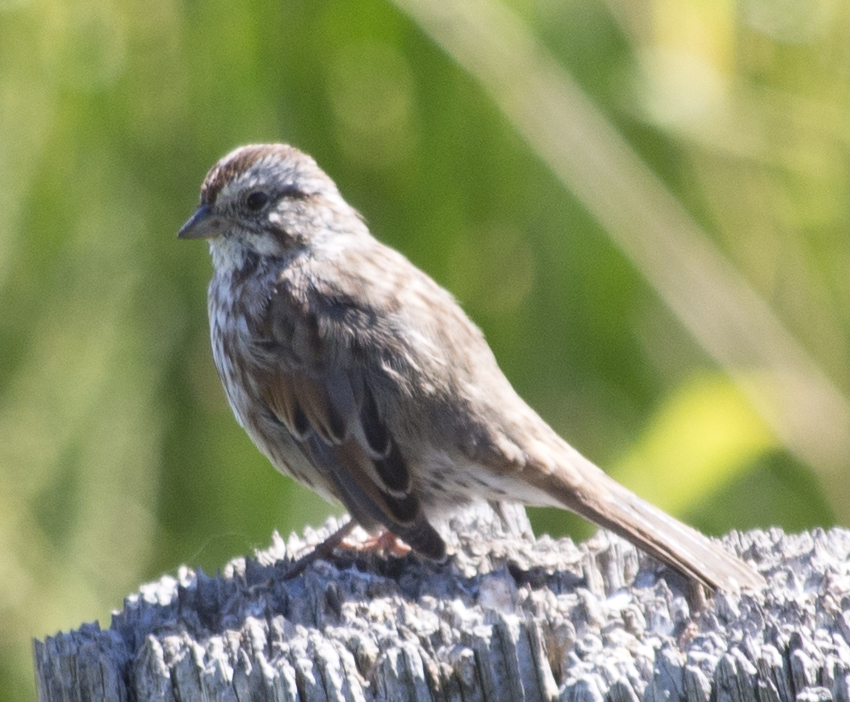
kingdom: Animalia
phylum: Chordata
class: Aves
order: Passeriformes
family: Passerellidae
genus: Melospiza
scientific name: Melospiza melodia
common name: Song sparrow
